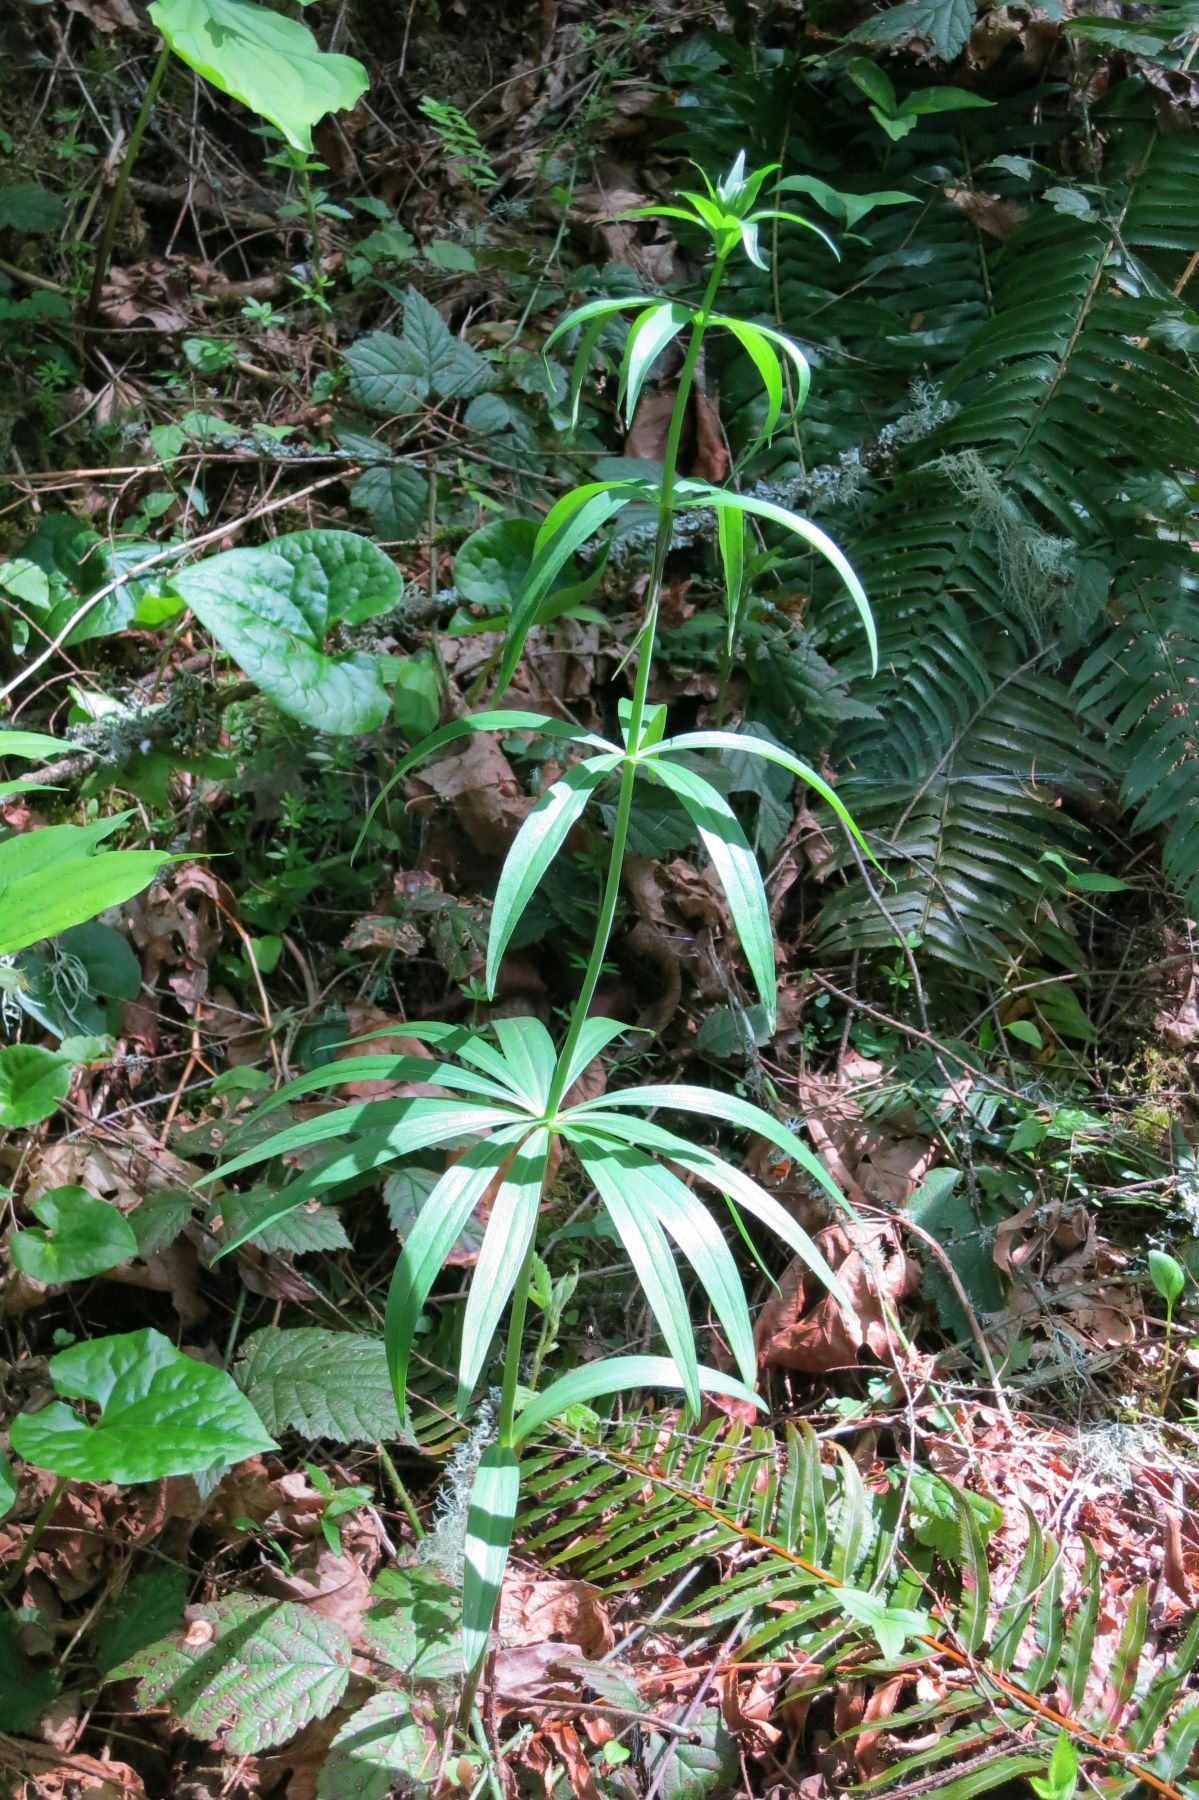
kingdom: Plantae
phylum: Tracheophyta
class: Liliopsida
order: Liliales
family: Liliaceae
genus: Lilium
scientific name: Lilium columbianum
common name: Columbia lily
